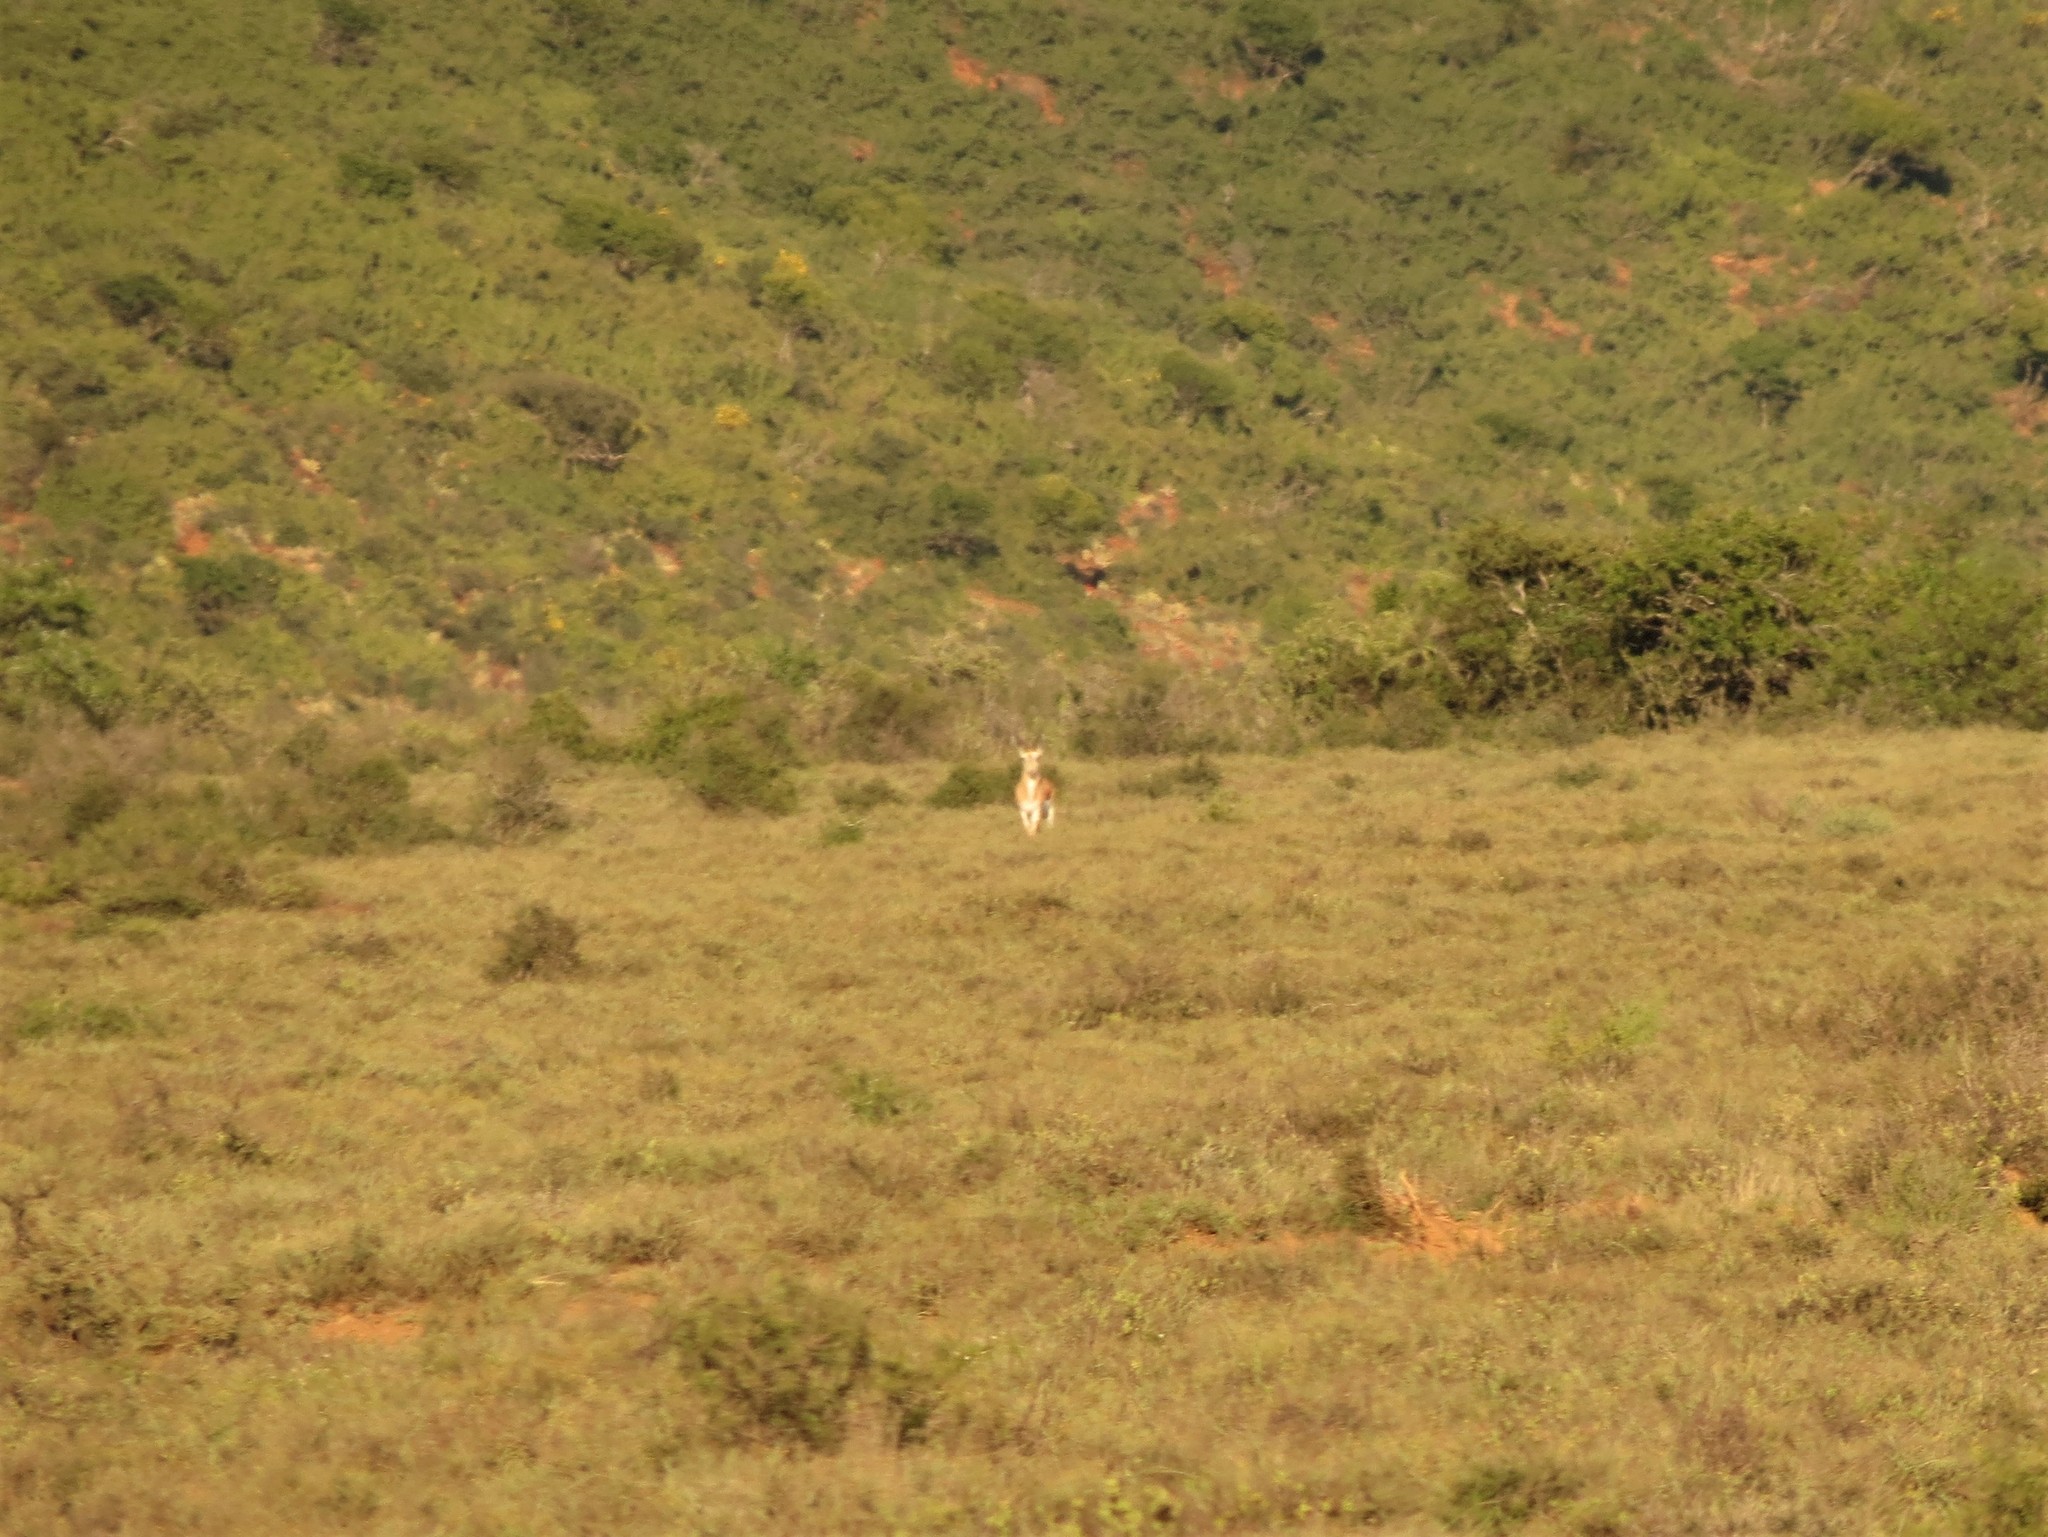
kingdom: Animalia
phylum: Chordata
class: Mammalia
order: Artiodactyla
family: Bovidae
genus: Antidorcas
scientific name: Antidorcas marsupialis
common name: Springbok
